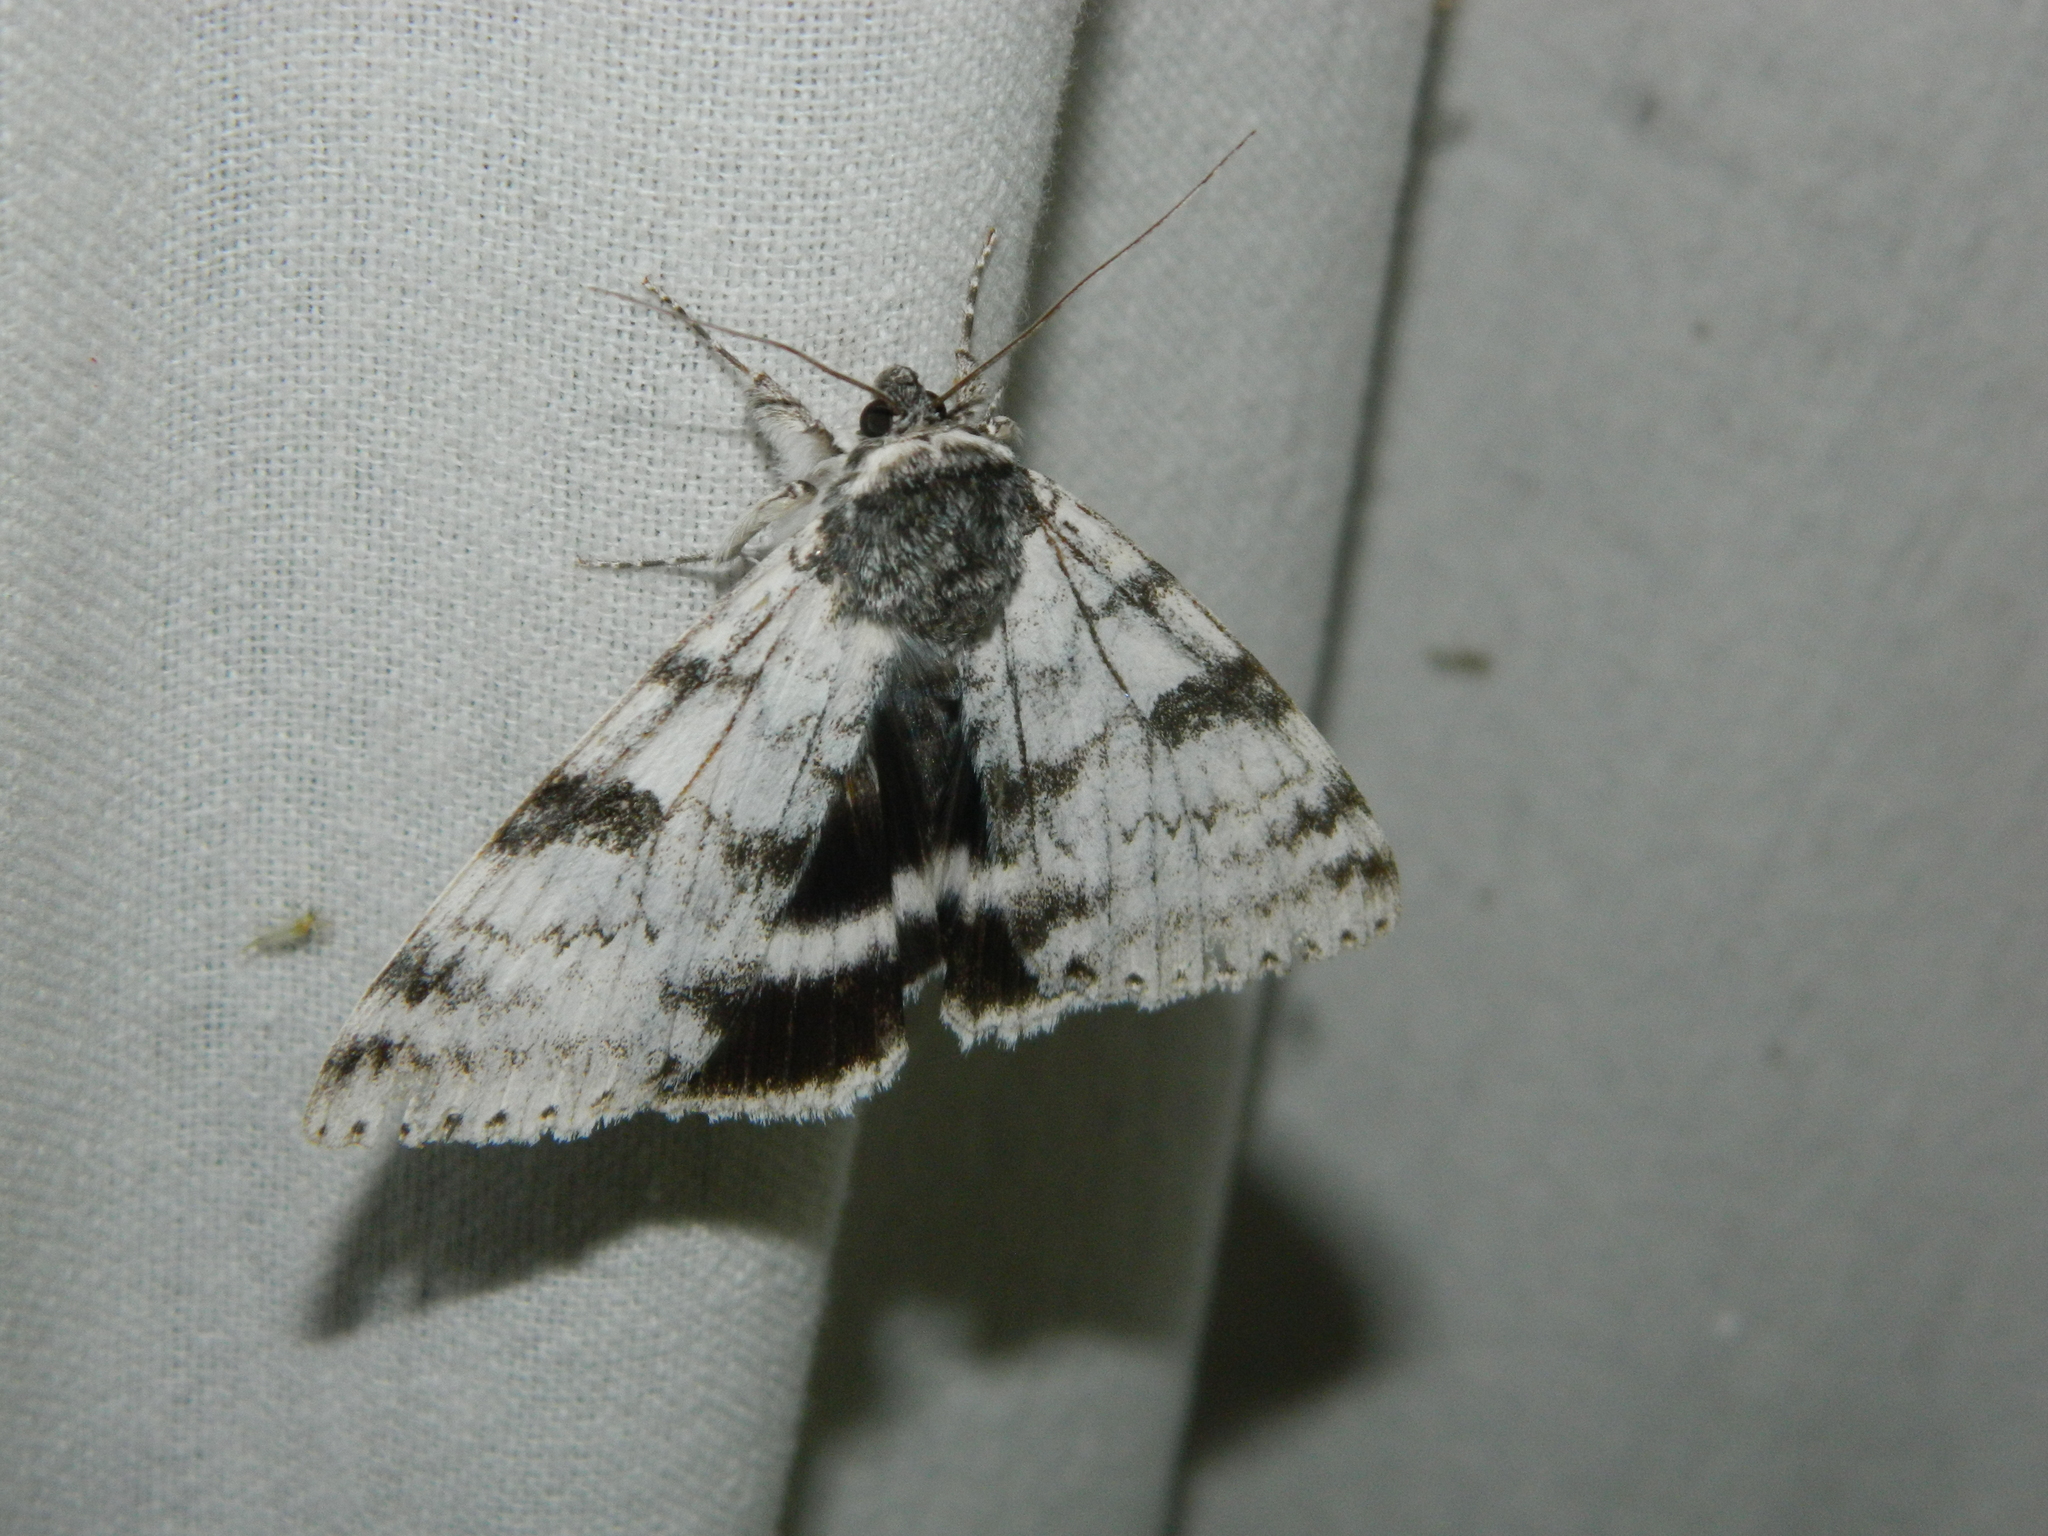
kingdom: Animalia
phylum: Arthropoda
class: Insecta
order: Lepidoptera
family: Erebidae
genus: Catocala
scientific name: Catocala relicta
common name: White underwing
